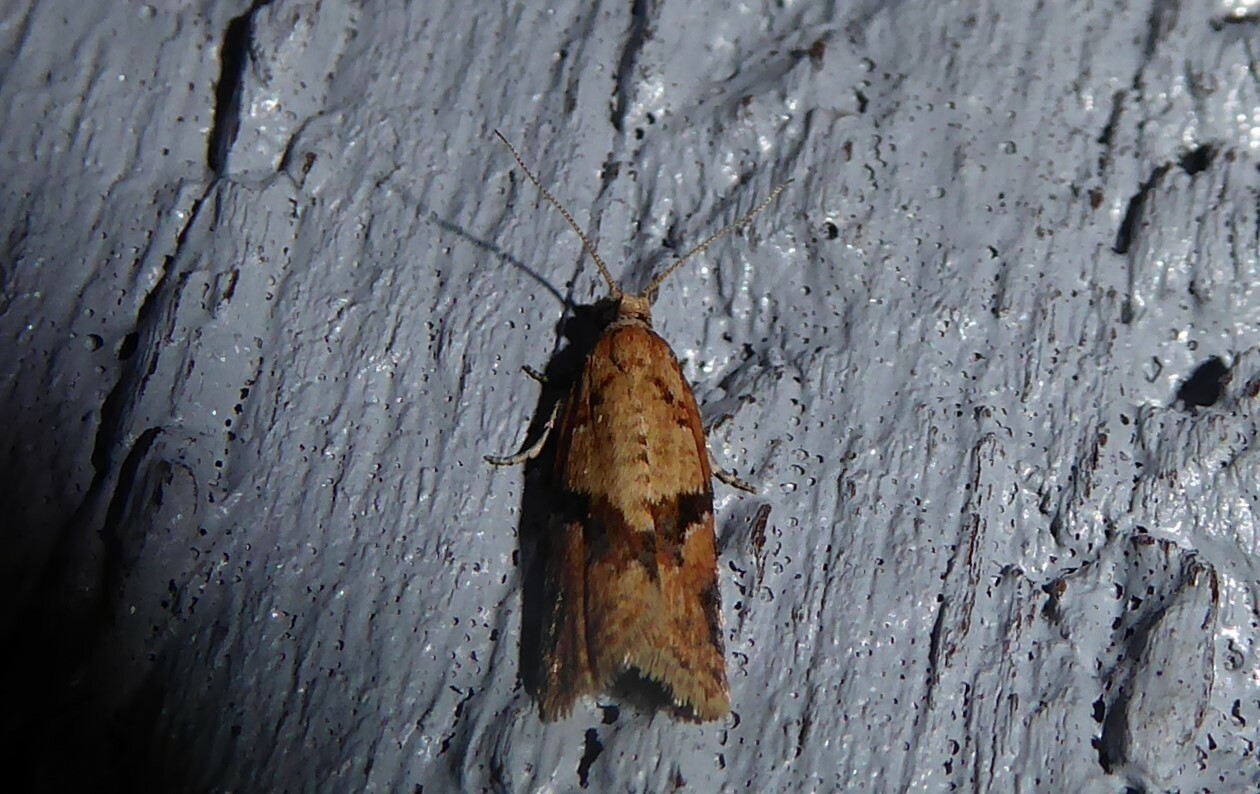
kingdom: Animalia
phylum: Arthropoda
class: Insecta
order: Lepidoptera
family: Tortricidae
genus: Capua
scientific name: Capua semiferana
